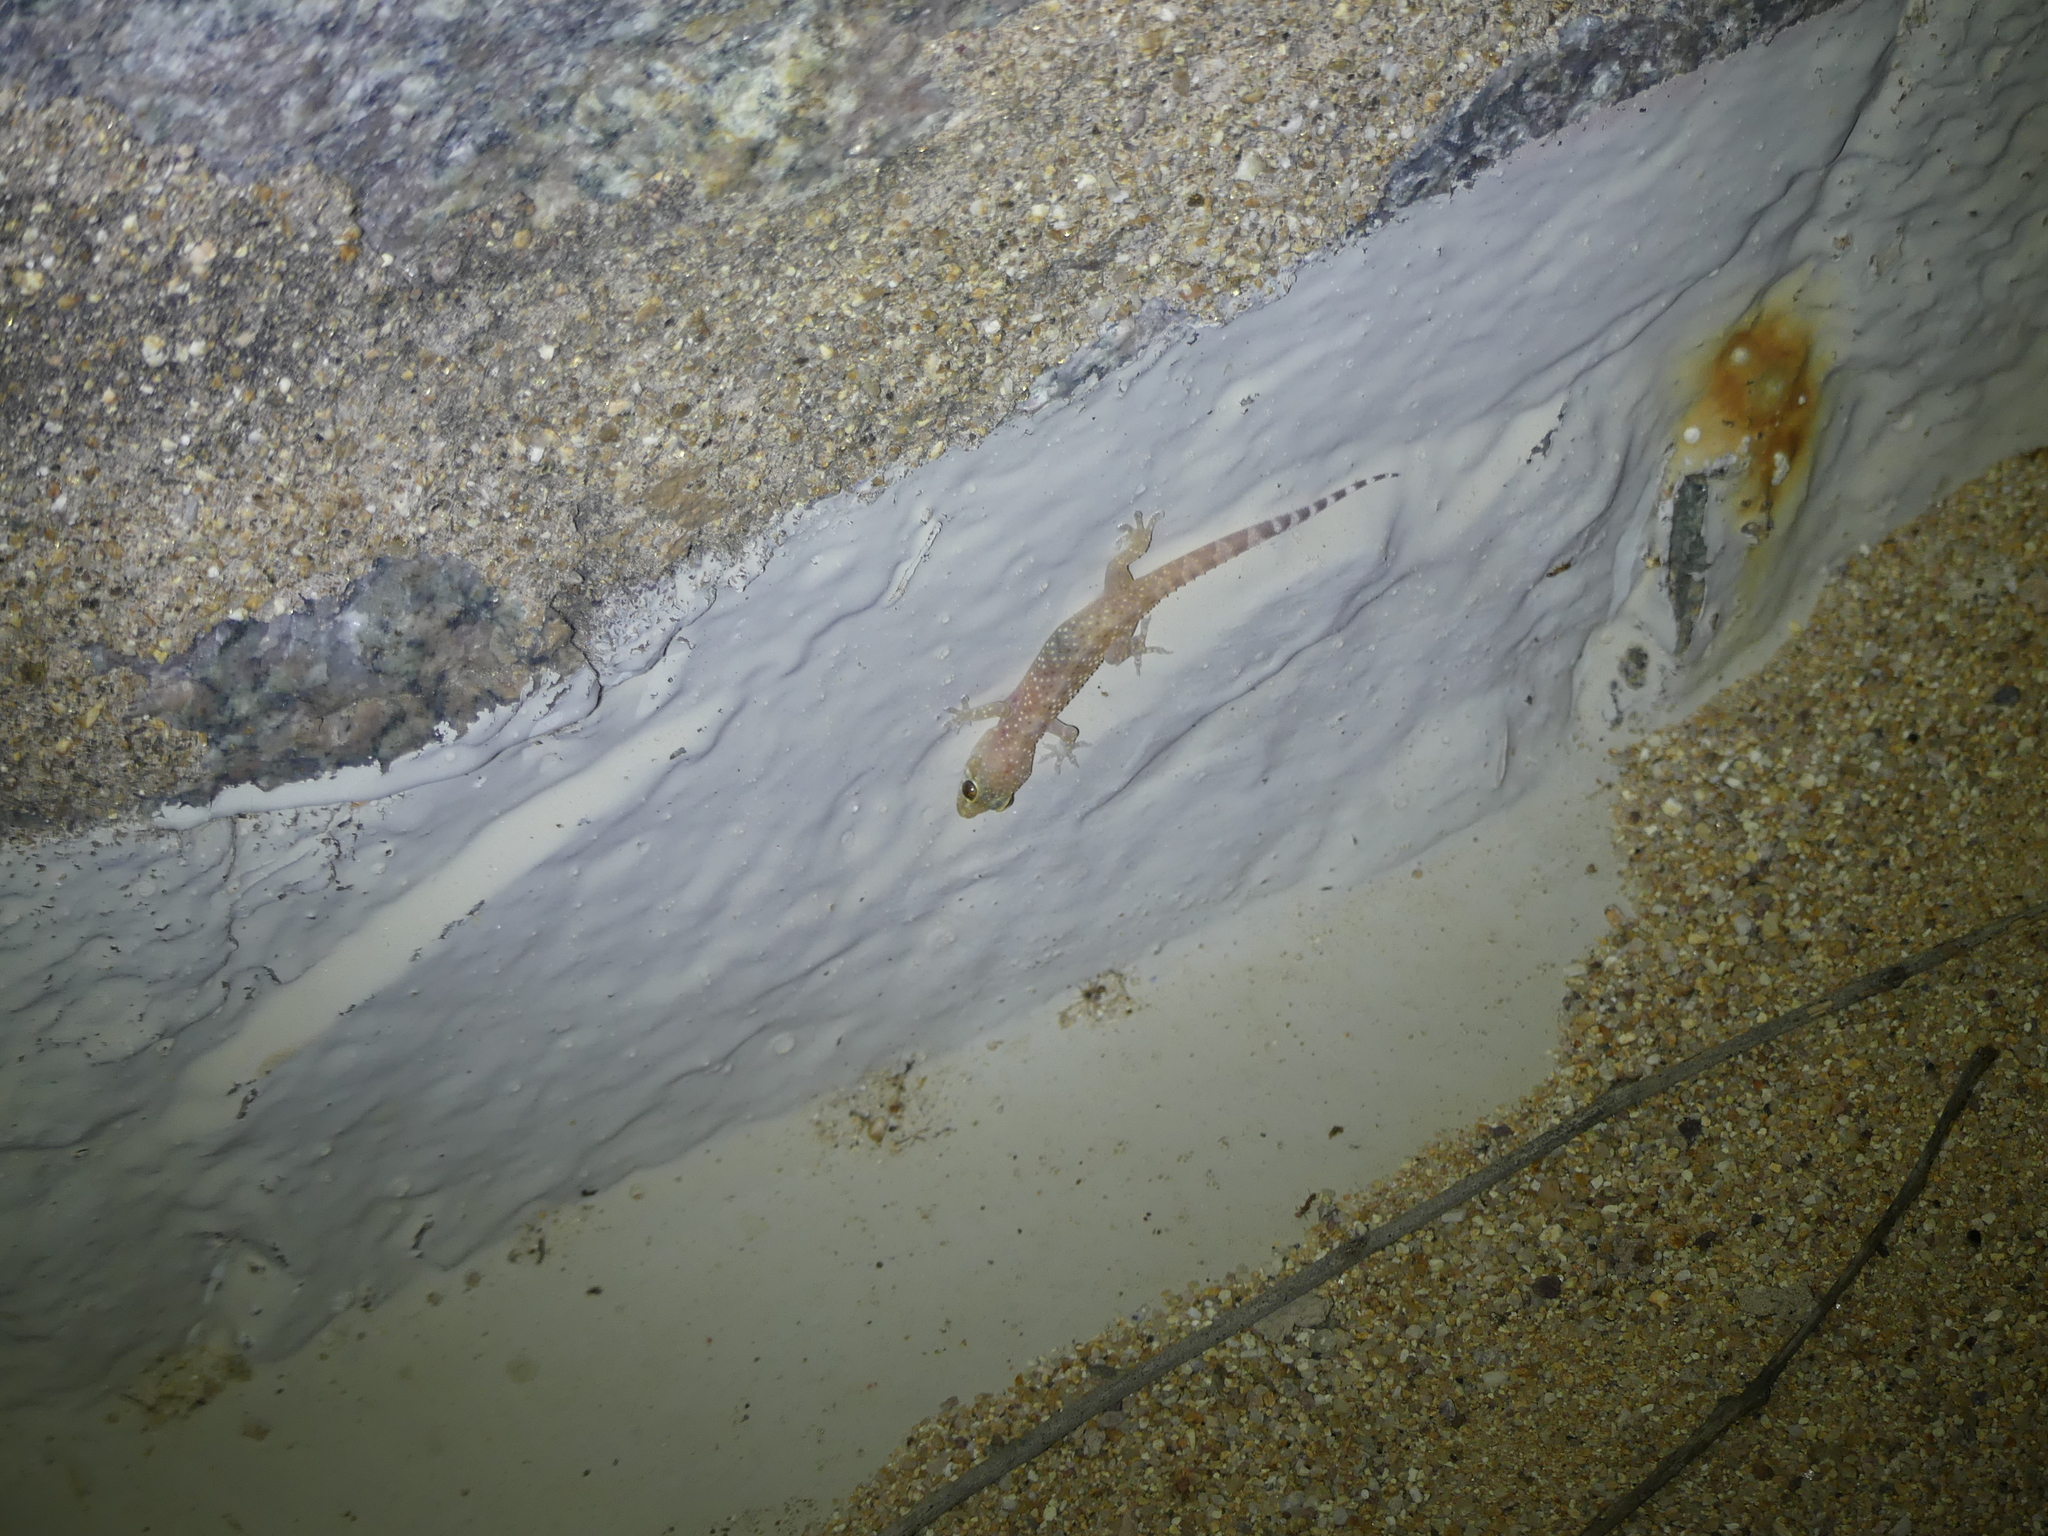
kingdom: Animalia
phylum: Chordata
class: Squamata
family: Gekkonidae
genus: Hemidactylus
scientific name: Hemidactylus turcicus
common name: Turkish gecko
